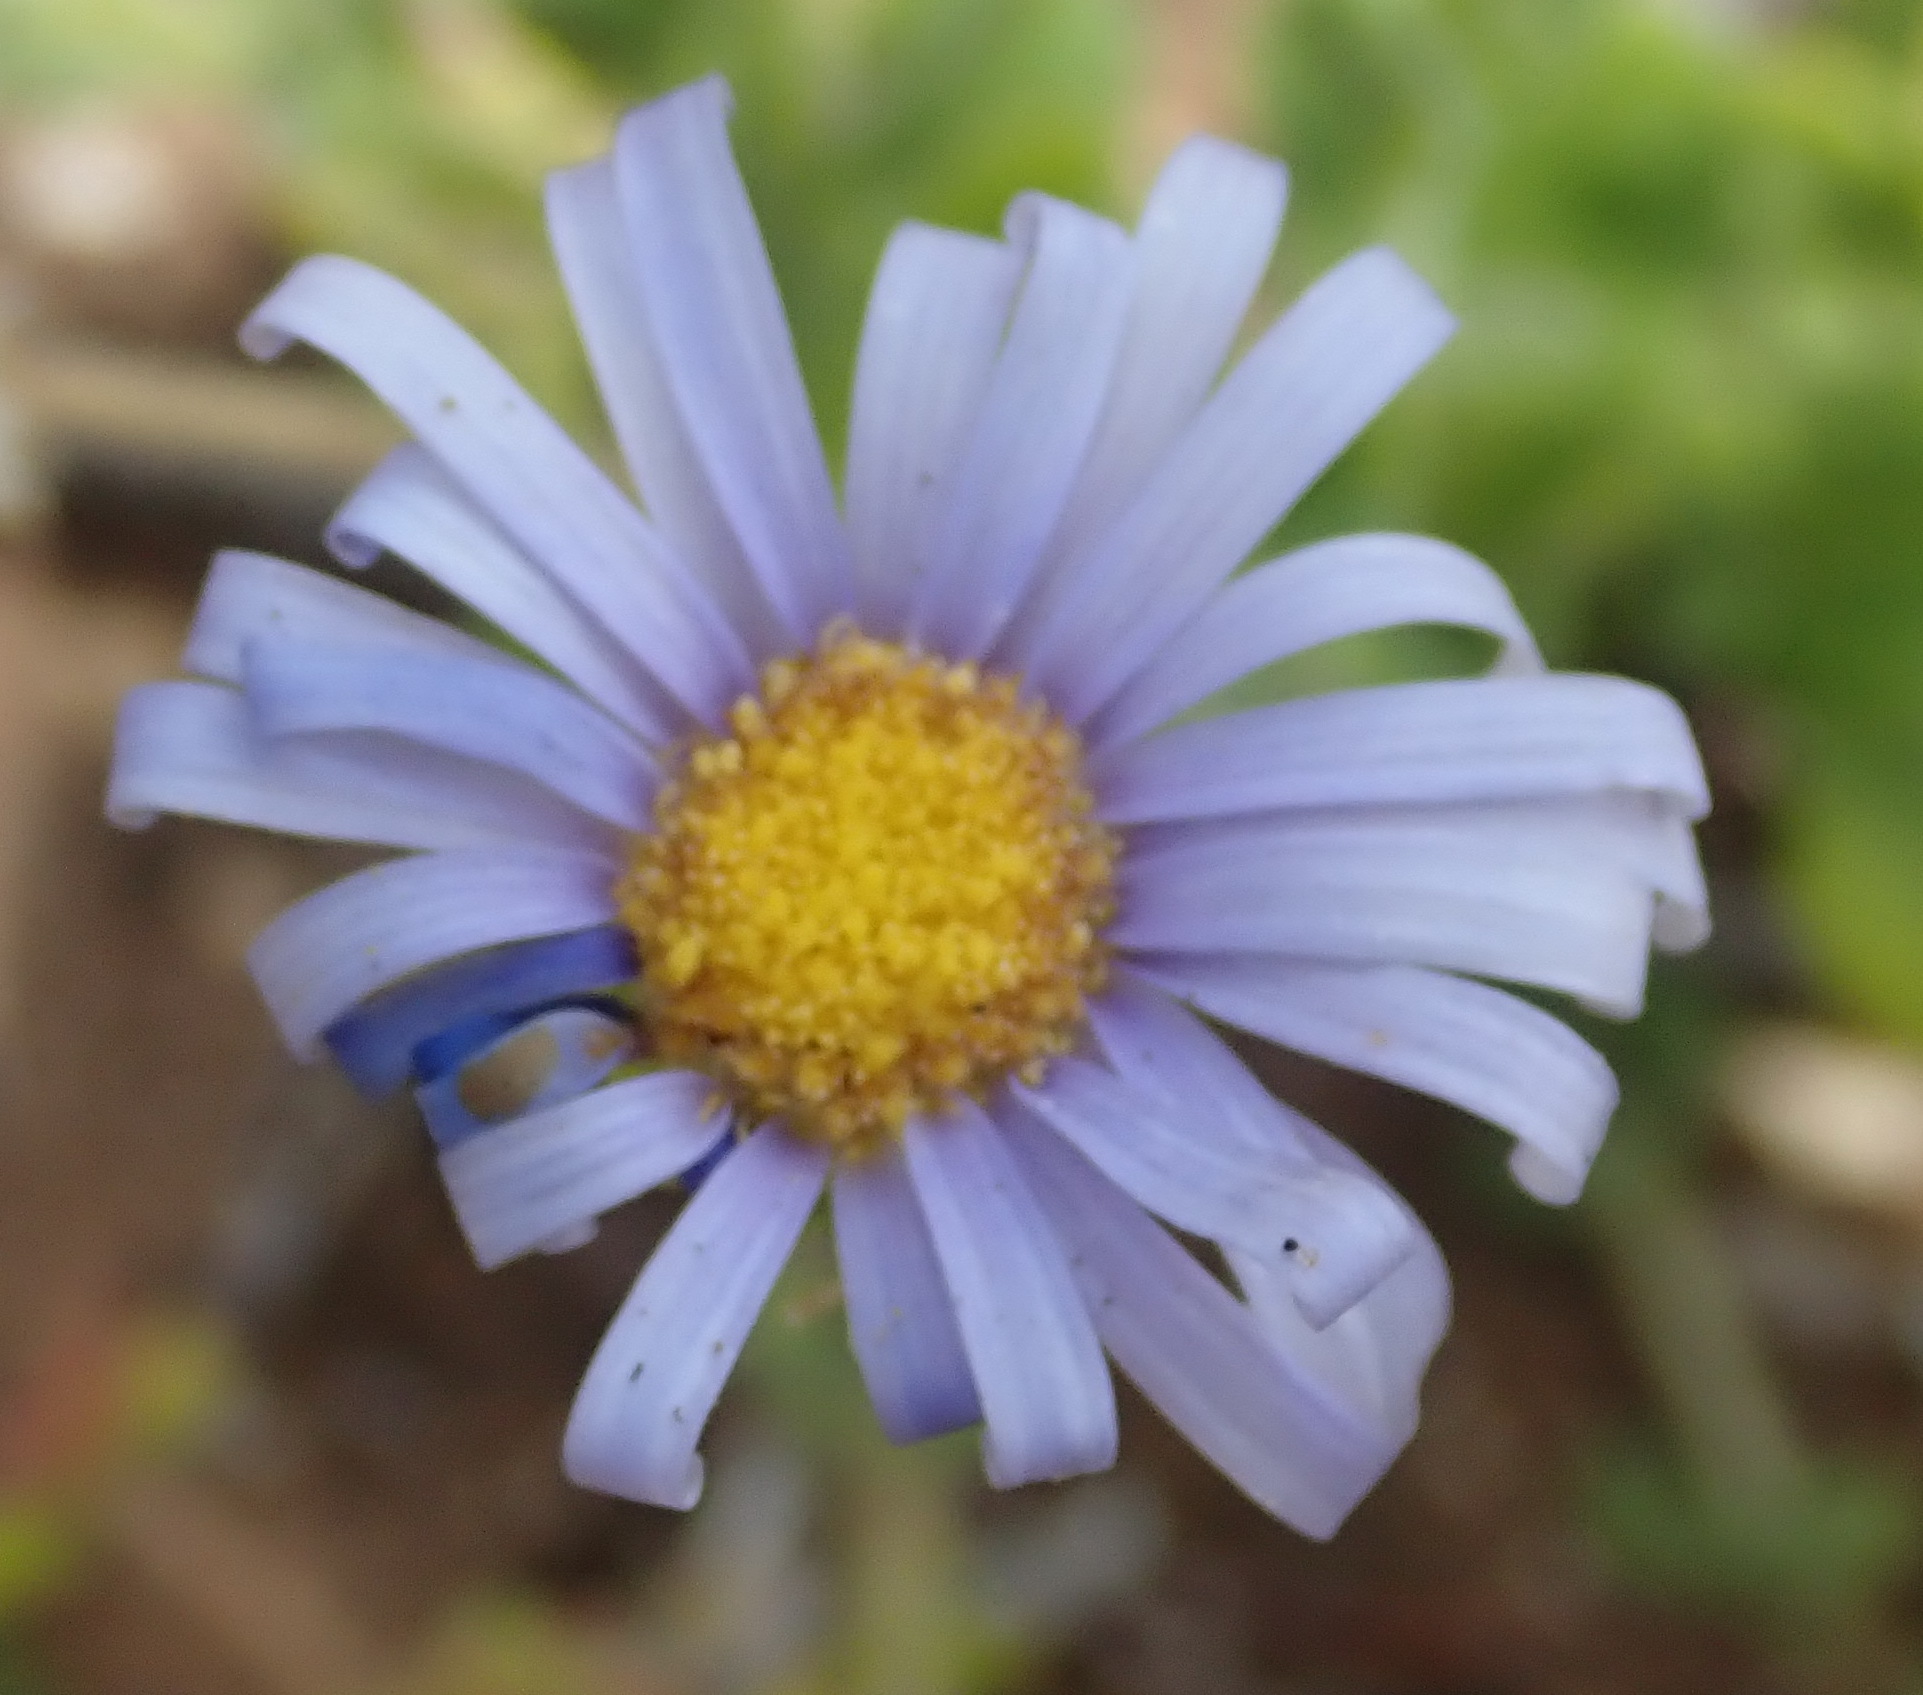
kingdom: Plantae
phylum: Tracheophyta
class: Magnoliopsida
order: Asterales
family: Asteraceae
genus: Felicia
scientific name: Felicia amoena
